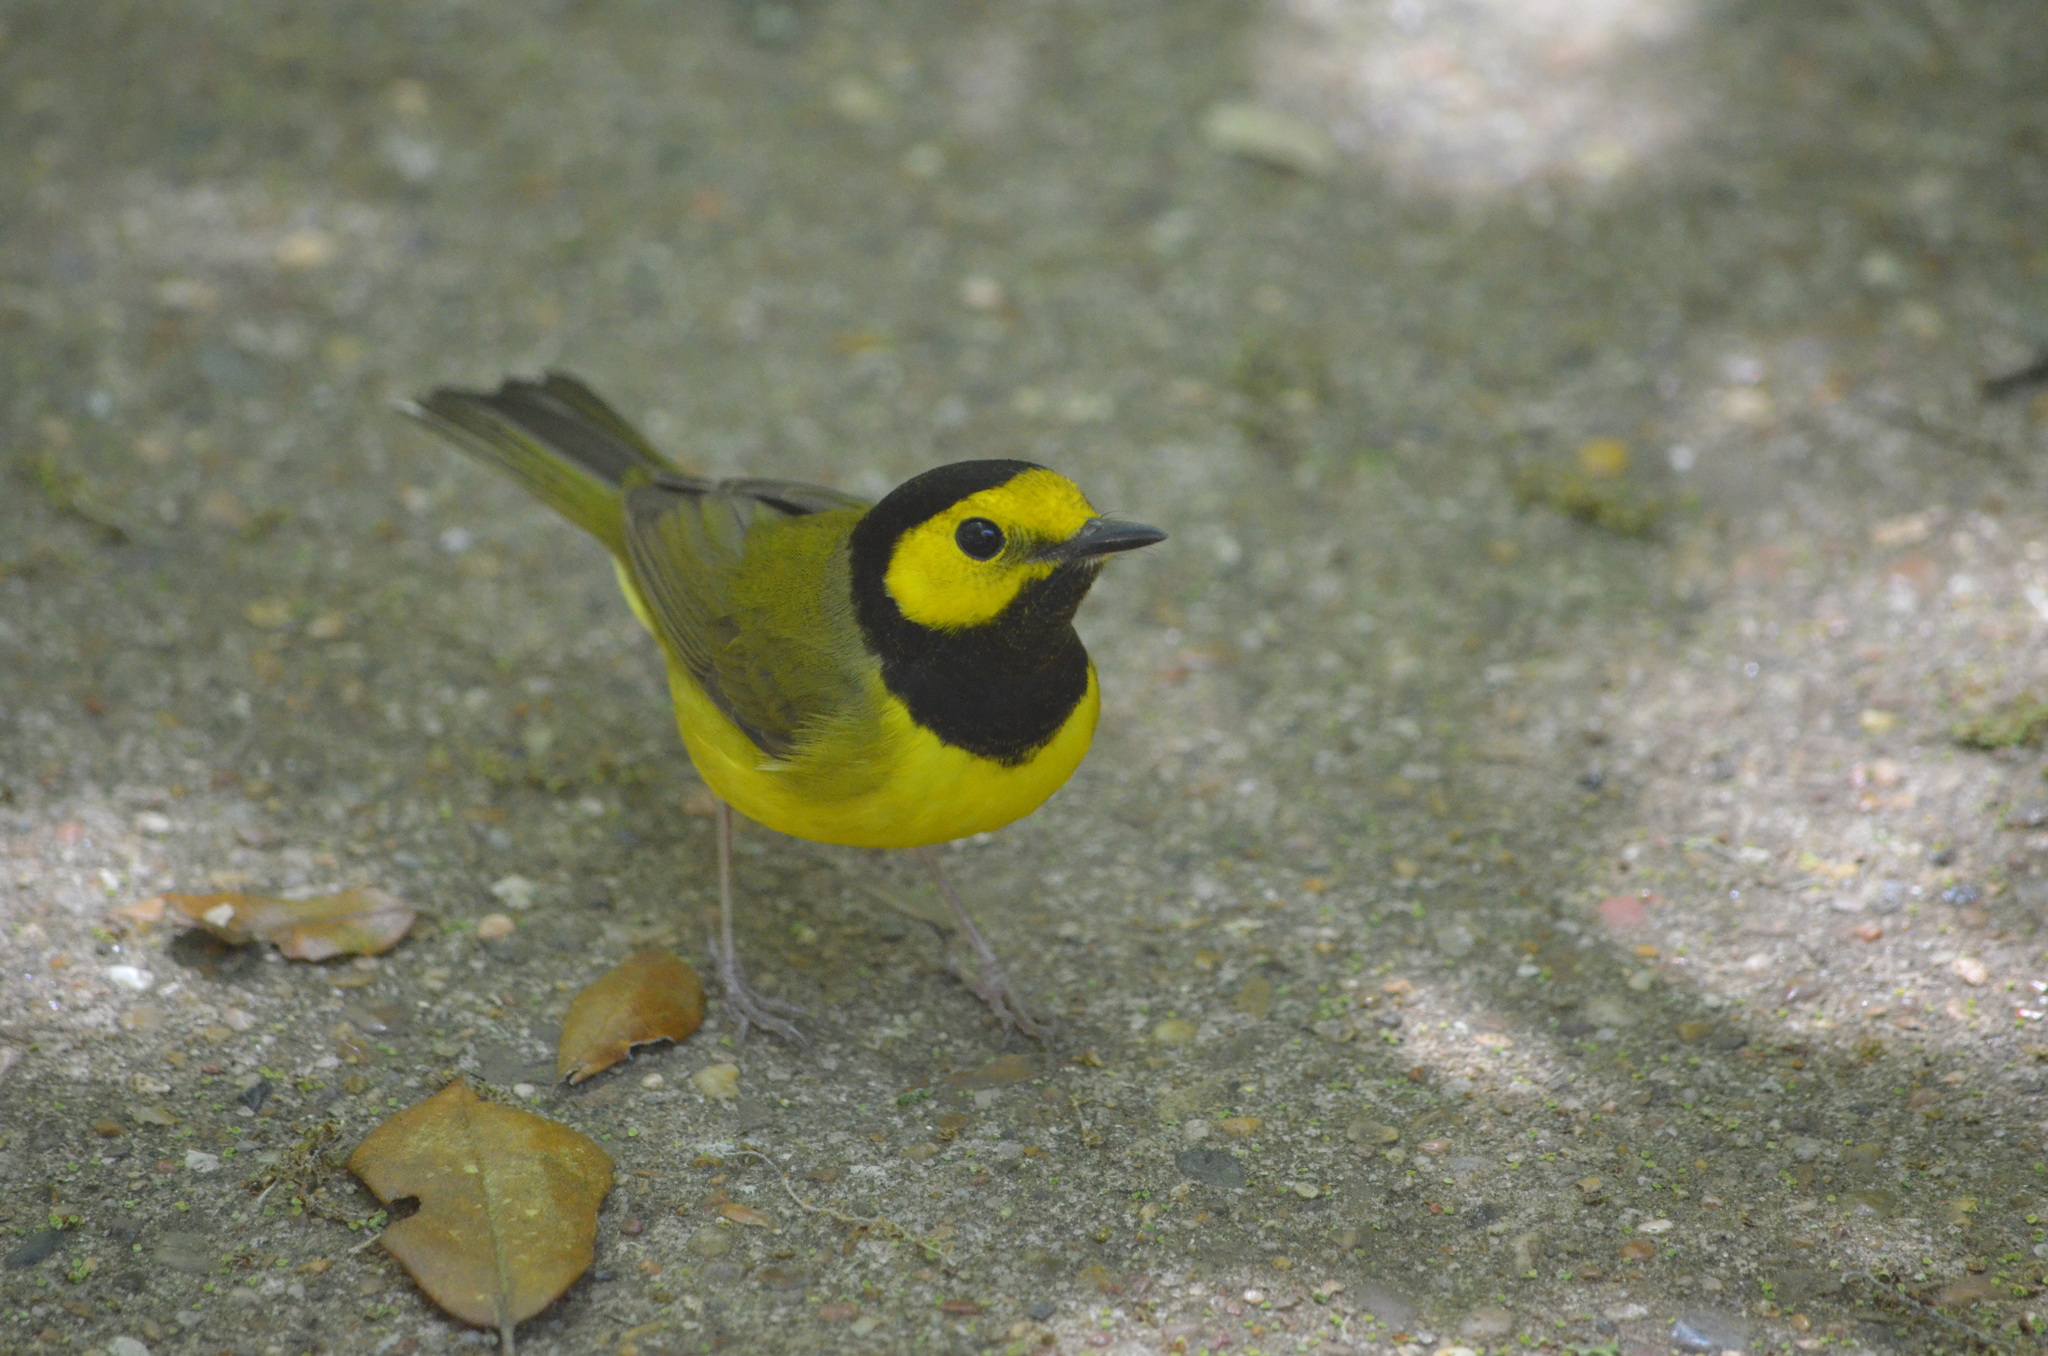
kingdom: Animalia
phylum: Chordata
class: Aves
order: Passeriformes
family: Parulidae
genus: Setophaga
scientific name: Setophaga citrina
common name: Hooded warbler
